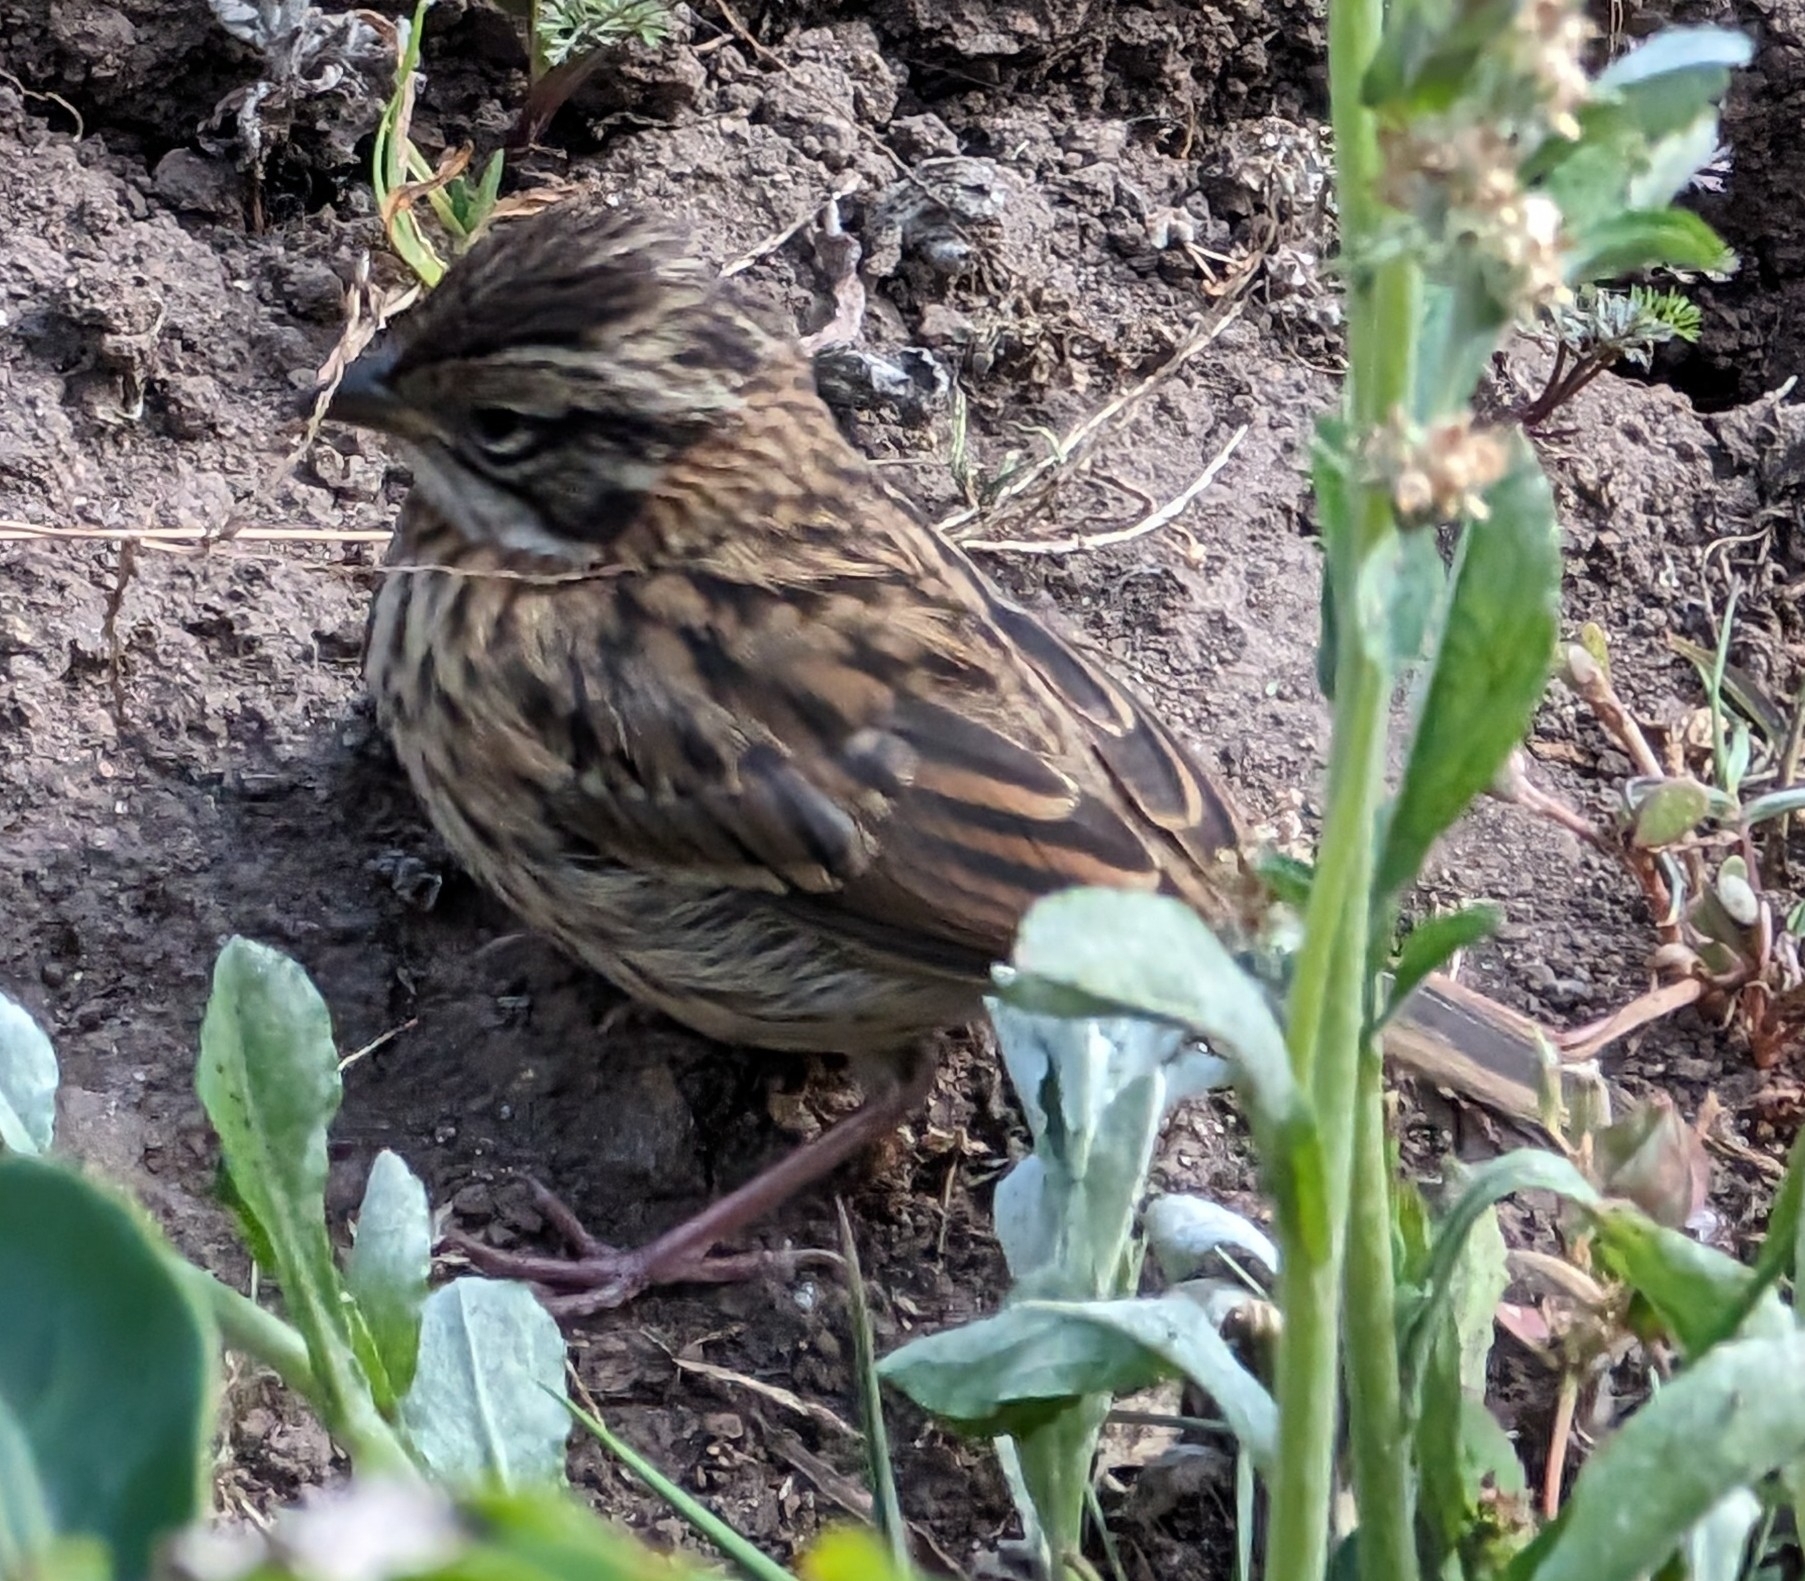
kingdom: Animalia
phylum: Chordata
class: Aves
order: Passeriformes
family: Passerellidae
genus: Zonotrichia
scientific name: Zonotrichia capensis
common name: Rufous-collared sparrow
